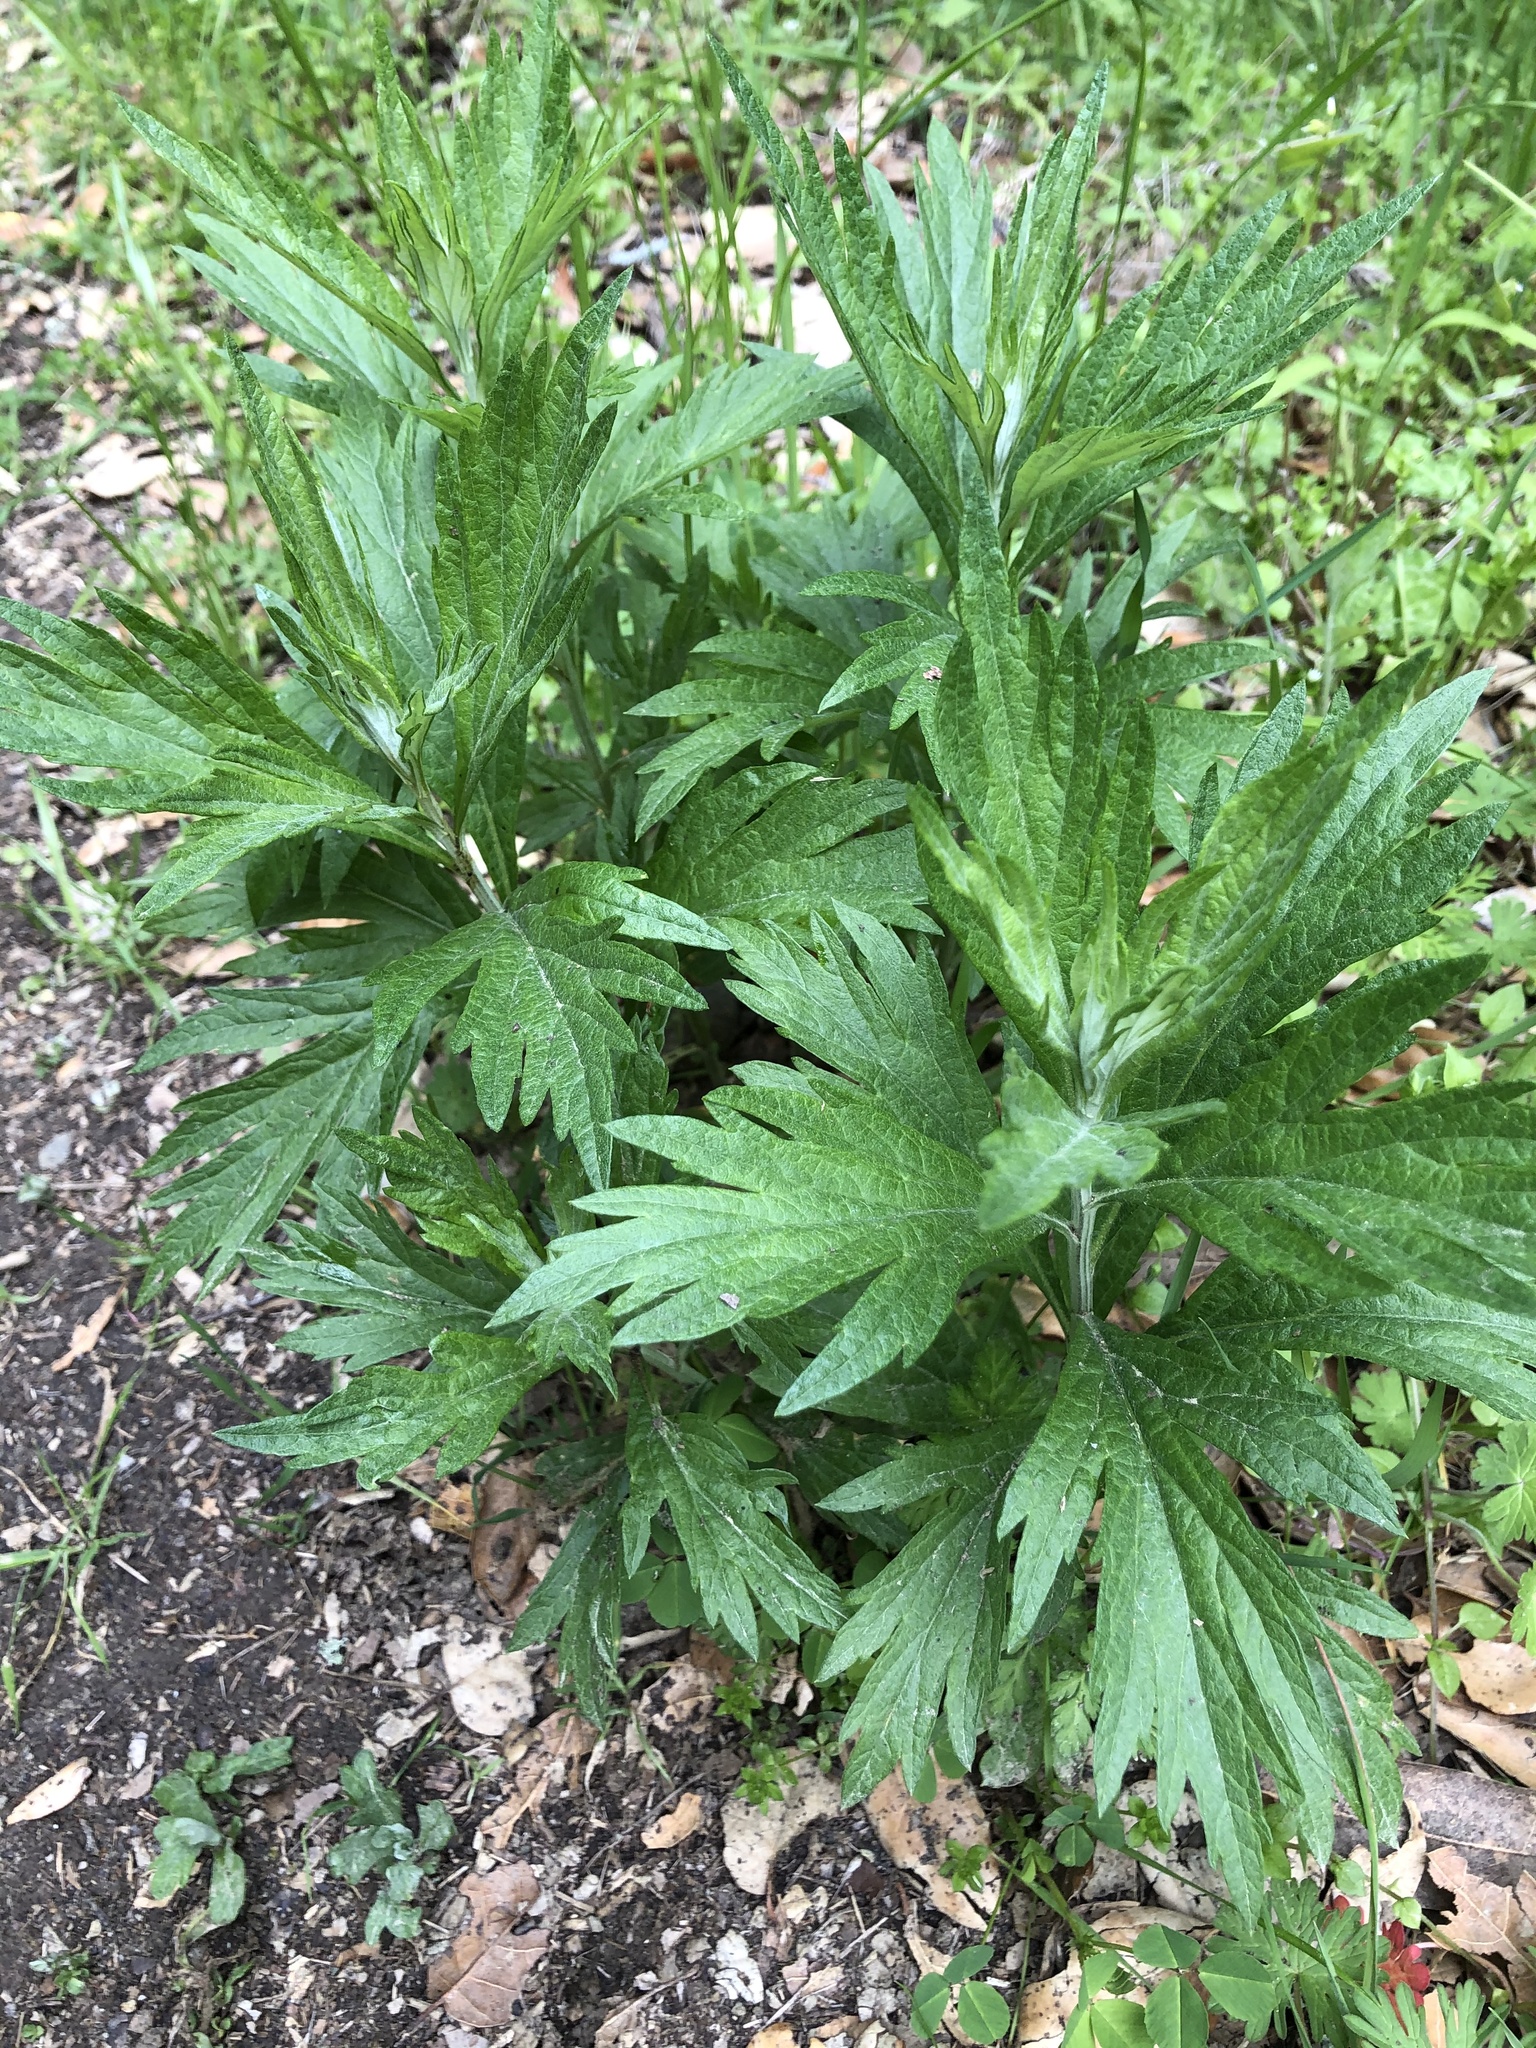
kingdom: Plantae
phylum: Tracheophyta
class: Magnoliopsida
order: Asterales
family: Asteraceae
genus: Artemisia
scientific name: Artemisia douglasiana
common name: Northwest mugwort
